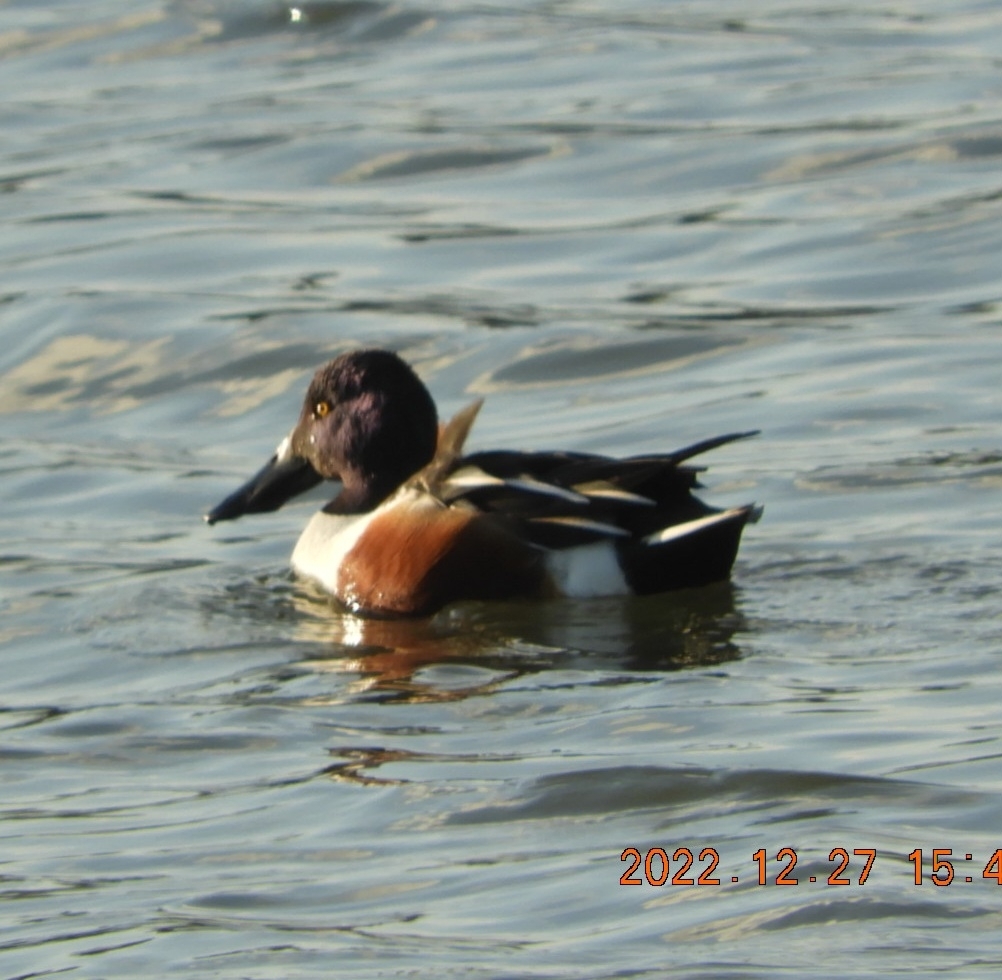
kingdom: Animalia
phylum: Chordata
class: Aves
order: Anseriformes
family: Anatidae
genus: Spatula
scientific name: Spatula clypeata
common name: Northern shoveler
